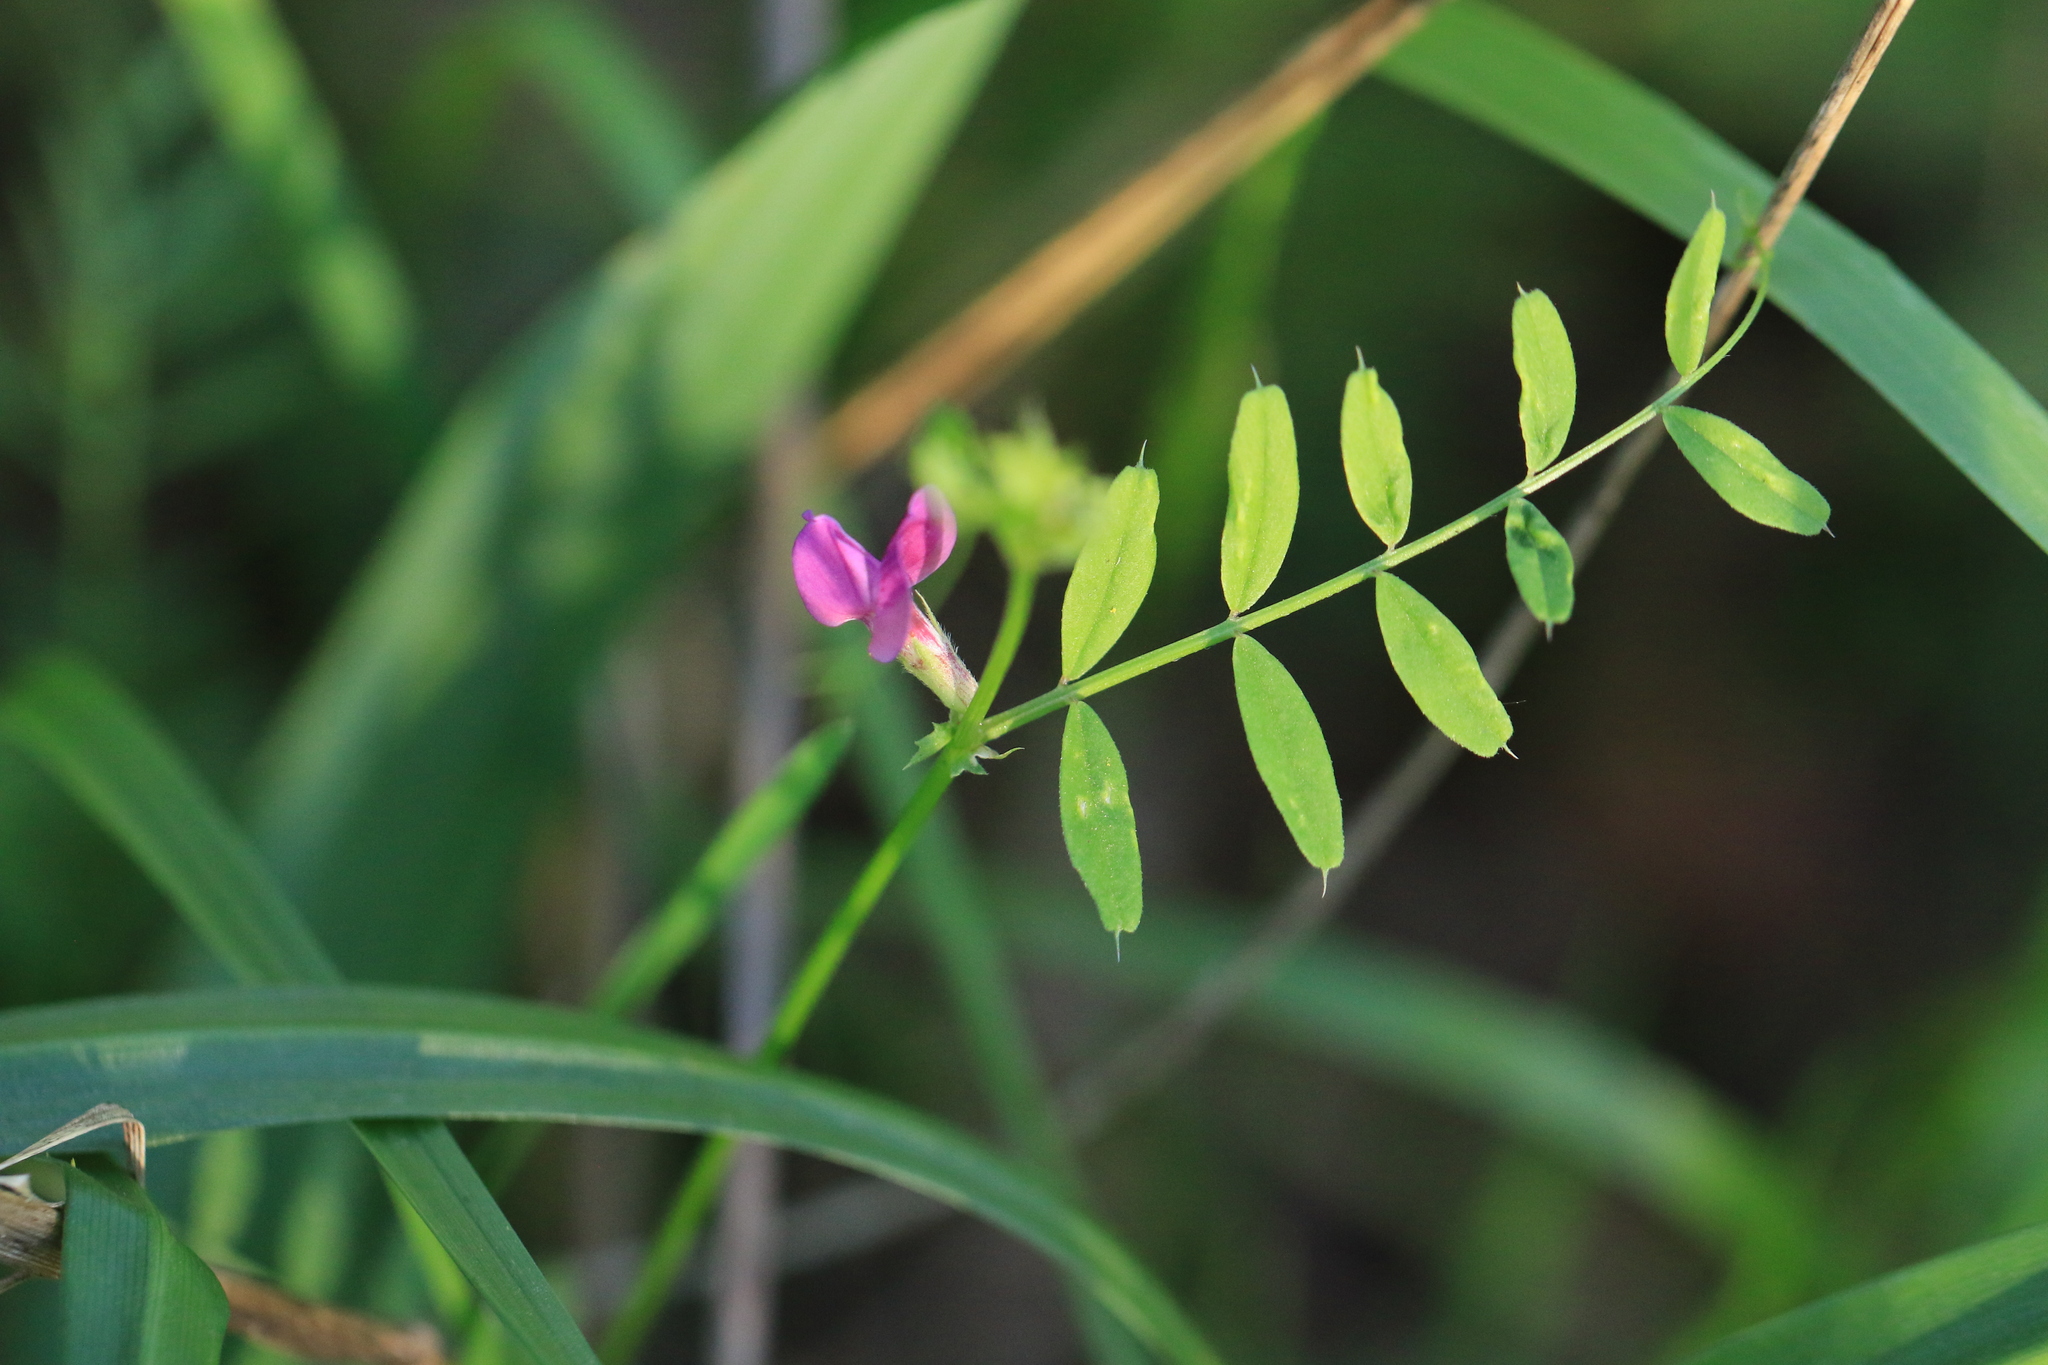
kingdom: Plantae
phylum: Tracheophyta
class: Magnoliopsida
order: Fabales
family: Fabaceae
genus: Vicia
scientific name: Vicia sativa
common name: Garden vetch
